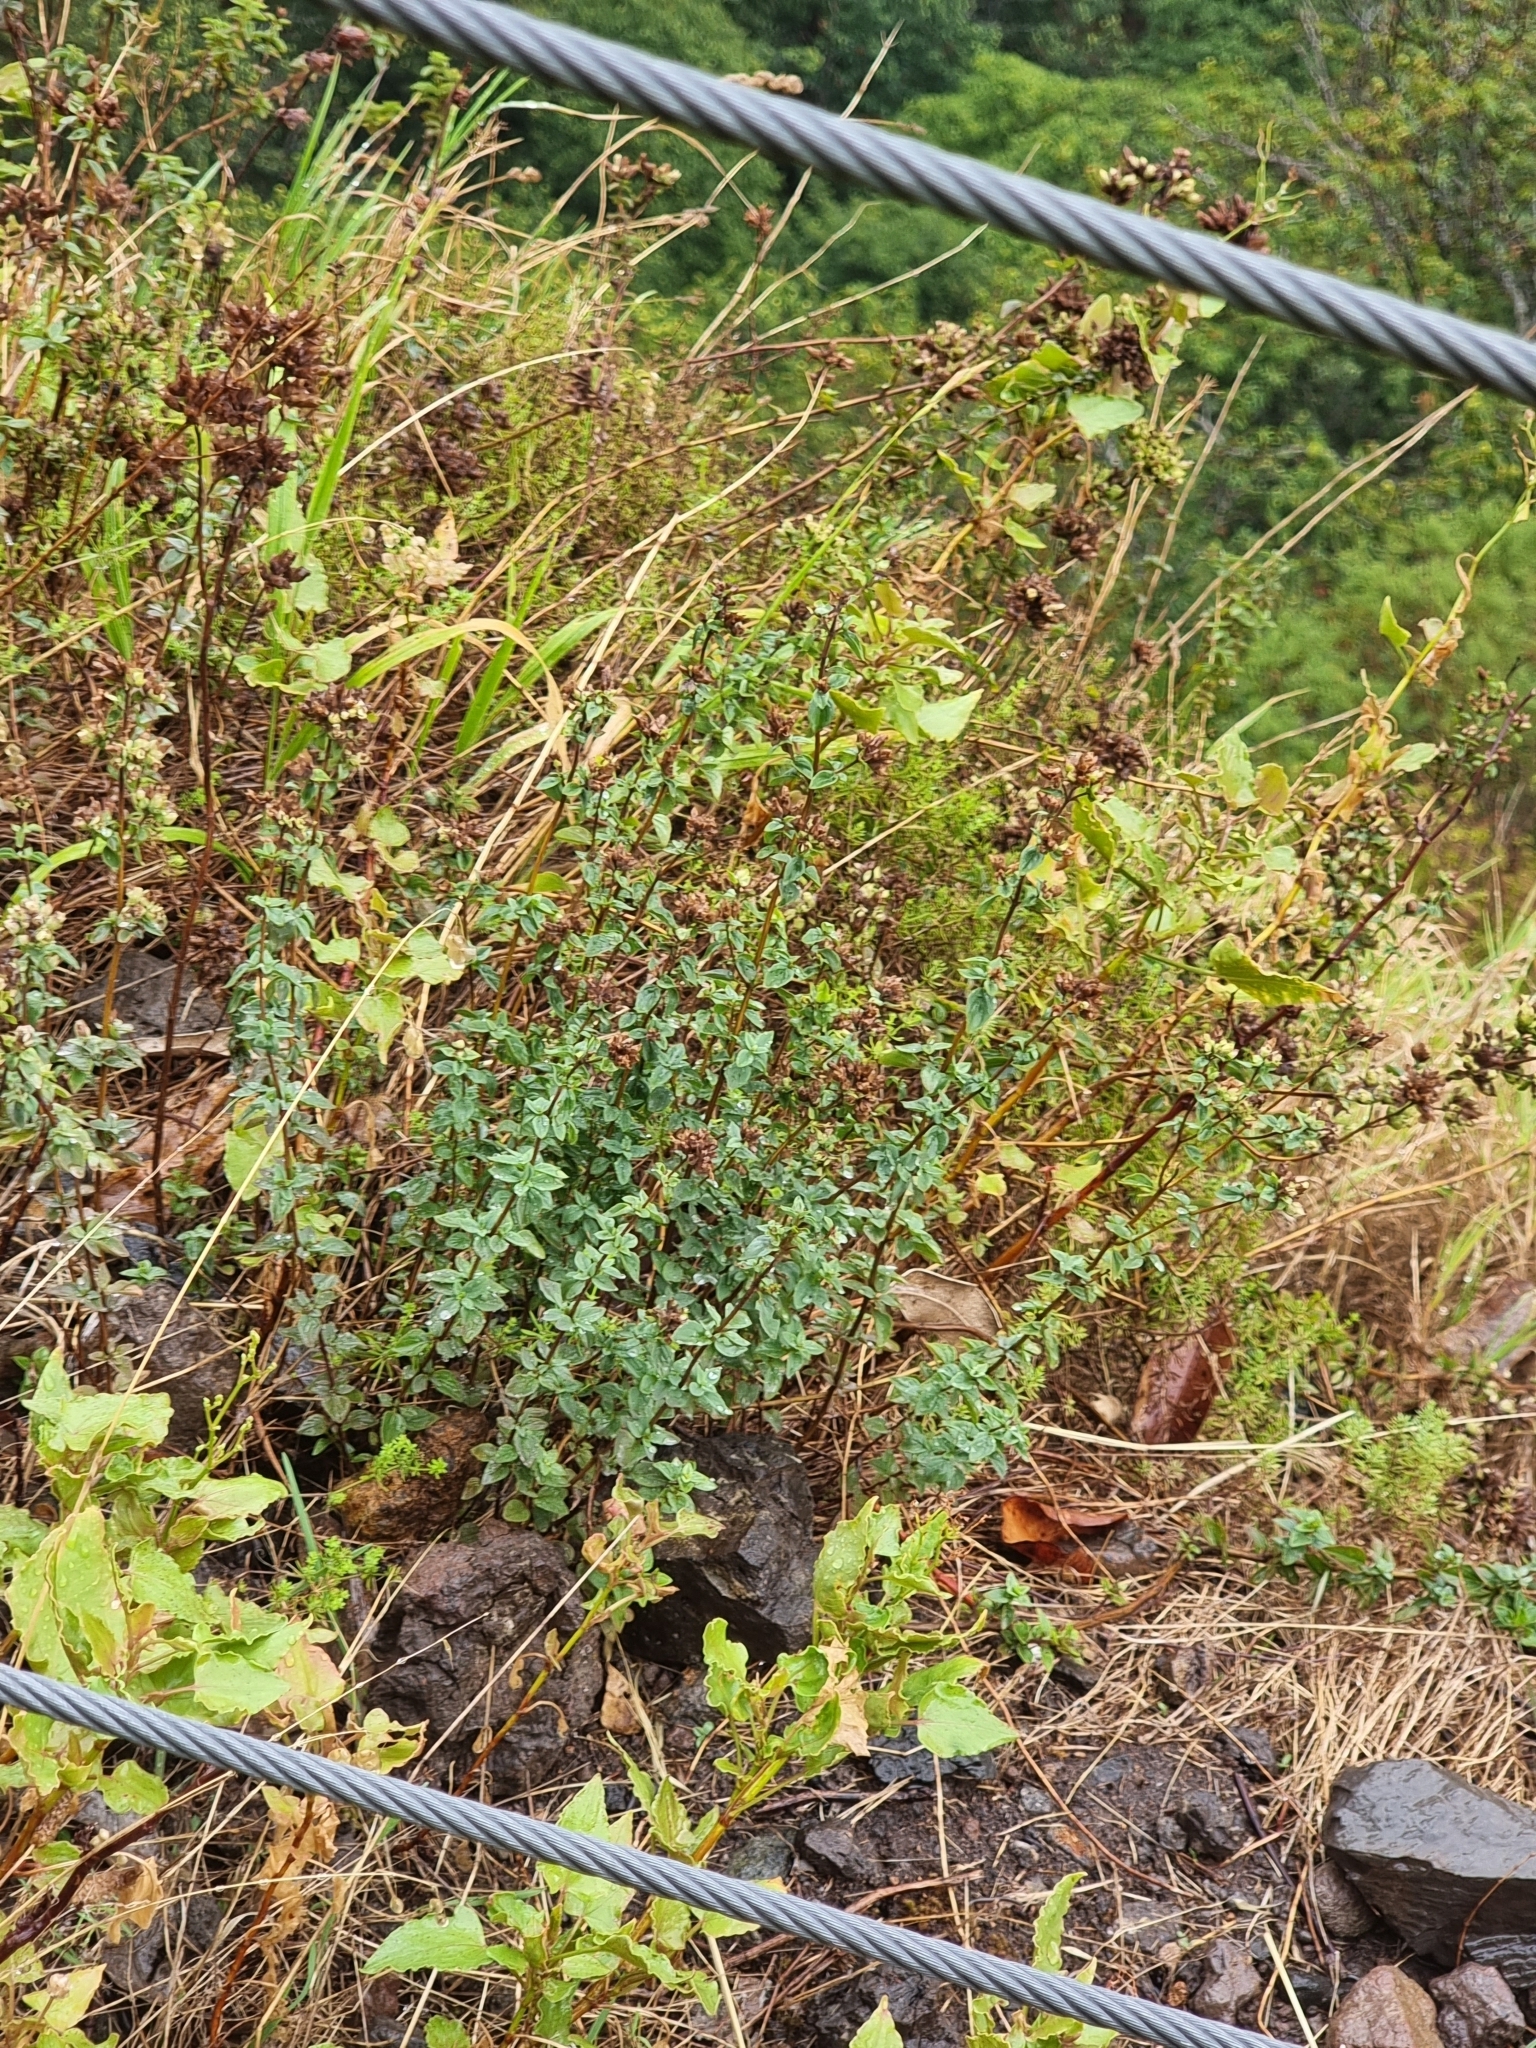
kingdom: Plantae
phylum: Tracheophyta
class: Magnoliopsida
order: Lamiales
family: Lamiaceae
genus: Origanum
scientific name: Origanum vulgare
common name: Wild marjoram
